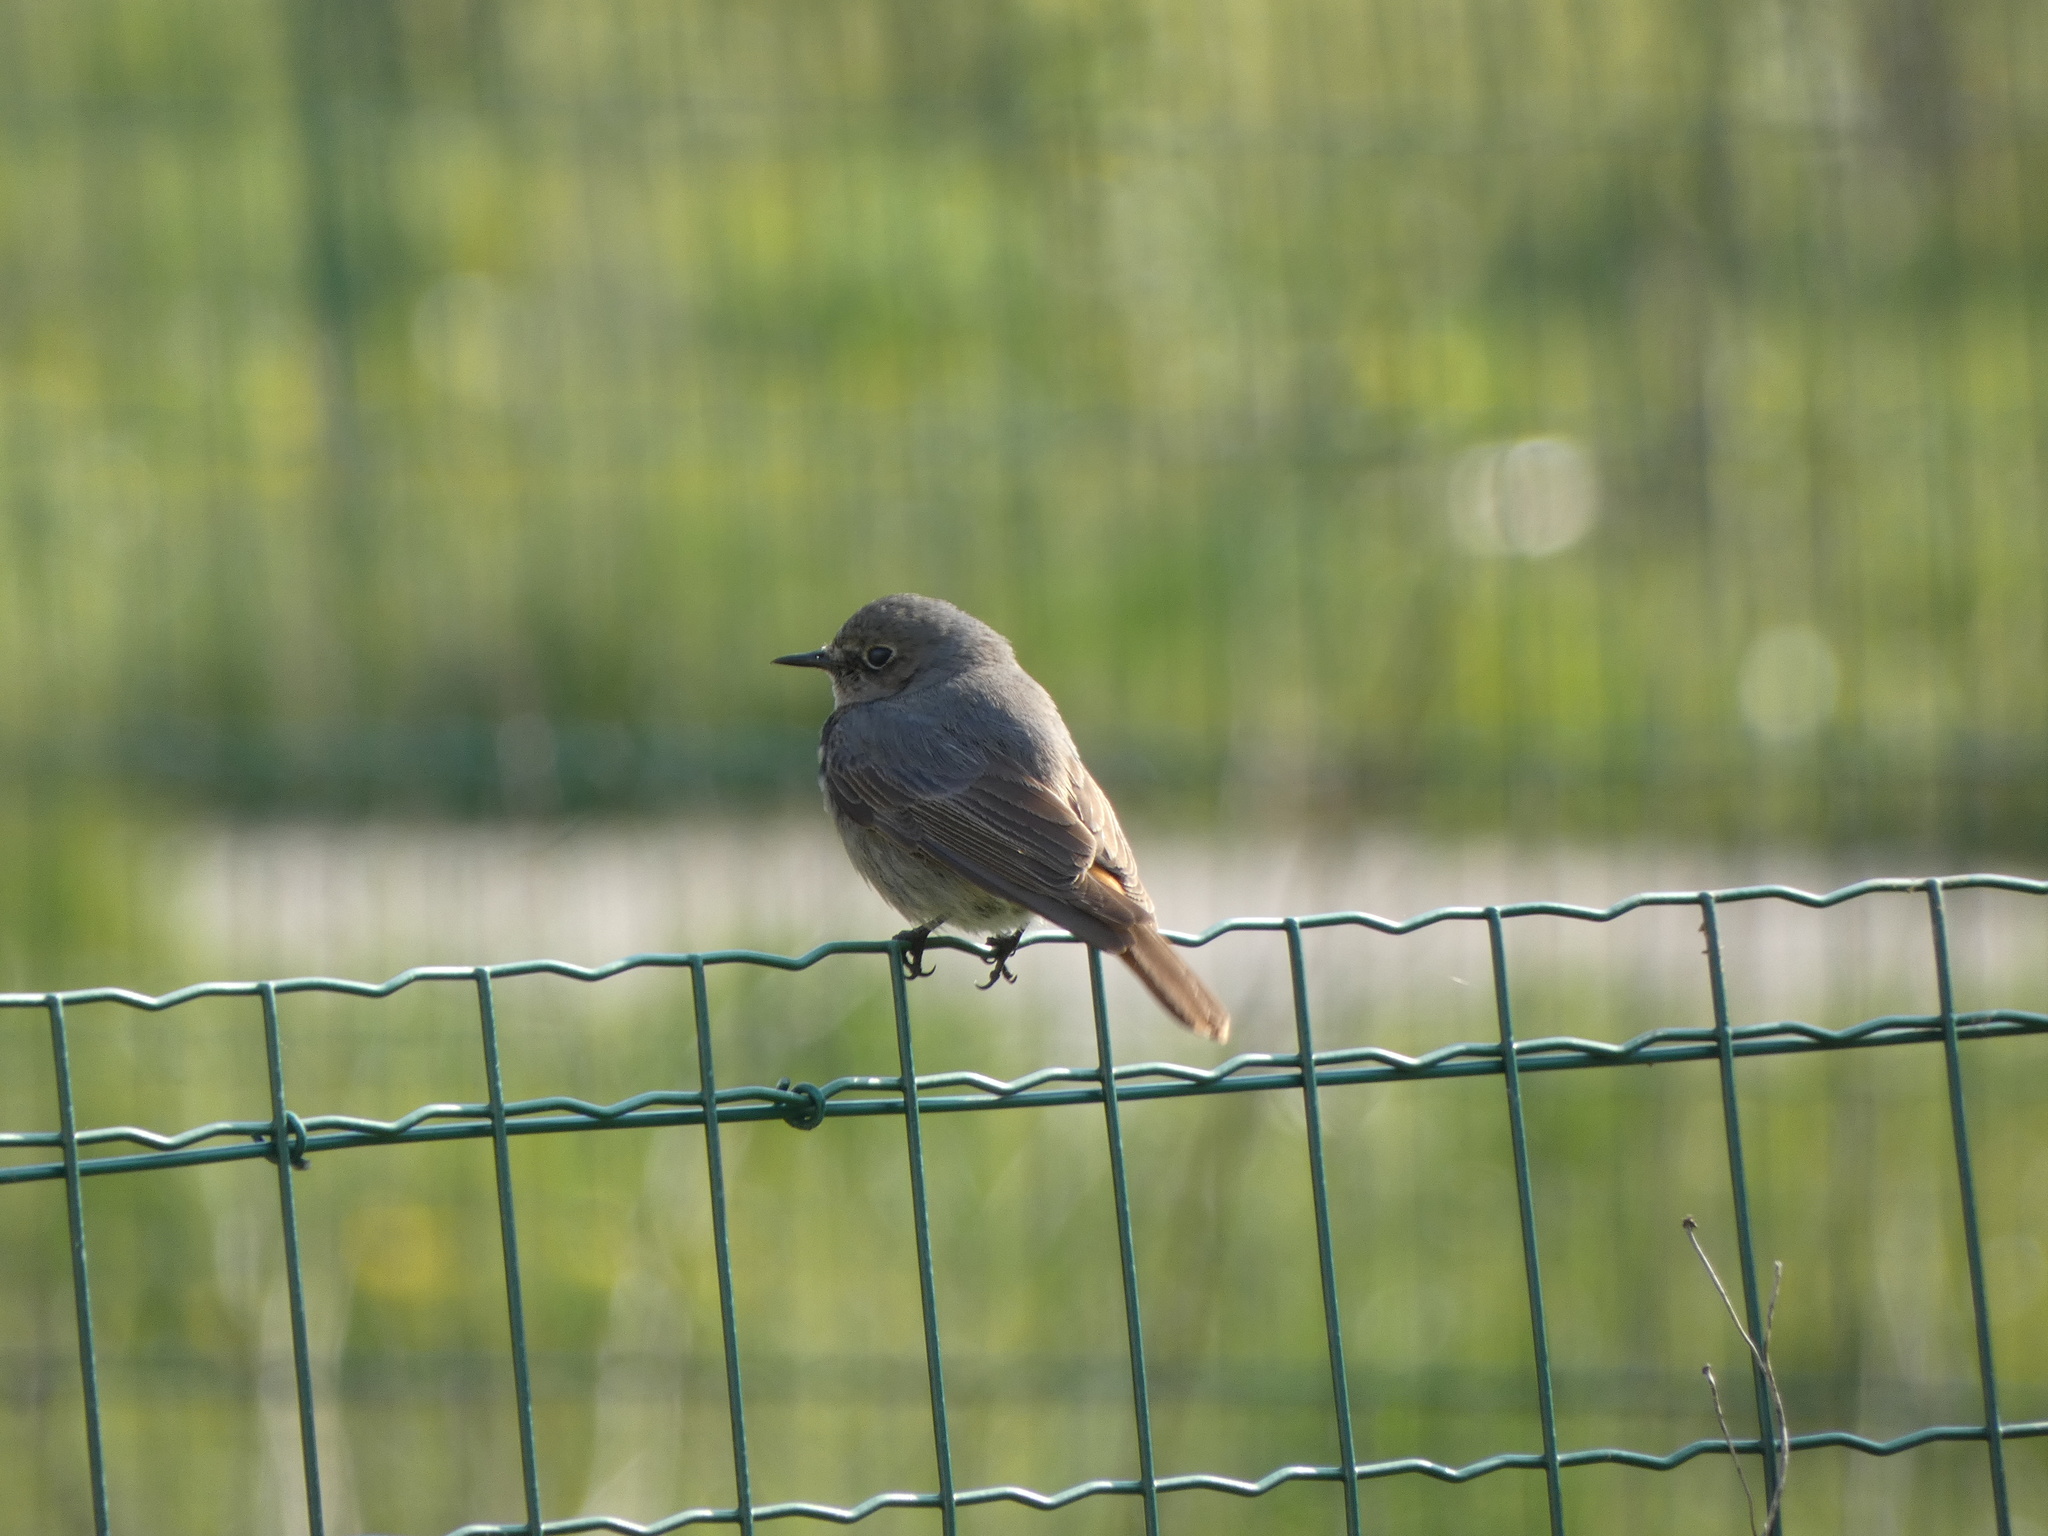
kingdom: Animalia
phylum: Chordata
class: Aves
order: Passeriformes
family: Muscicapidae
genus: Phoenicurus
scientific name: Phoenicurus ochruros
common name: Black redstart
